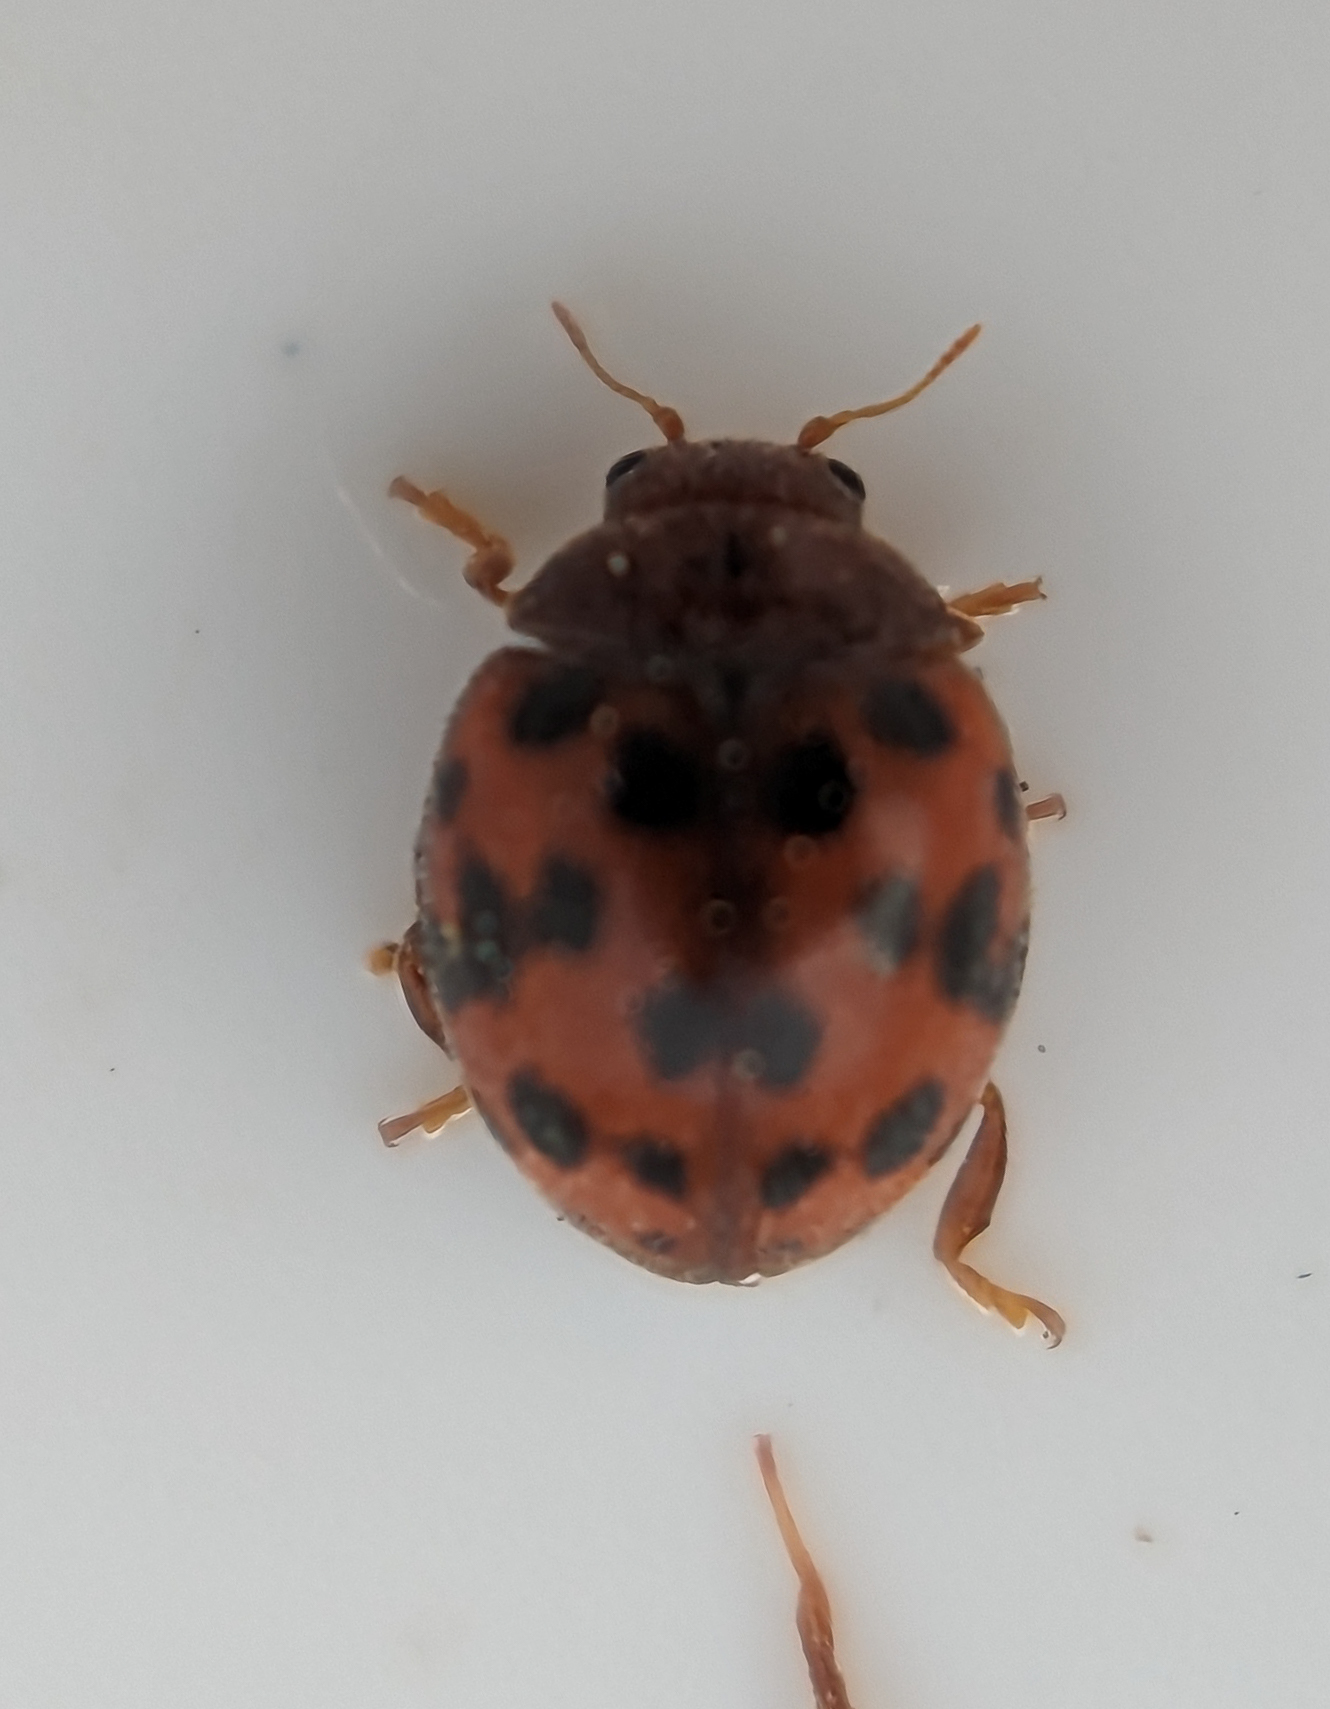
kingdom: Animalia
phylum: Arthropoda
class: Insecta
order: Coleoptera
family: Coccinellidae
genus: Subcoccinella
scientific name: Subcoccinella vigintiquatuorpunctata
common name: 24-spot ladybird
